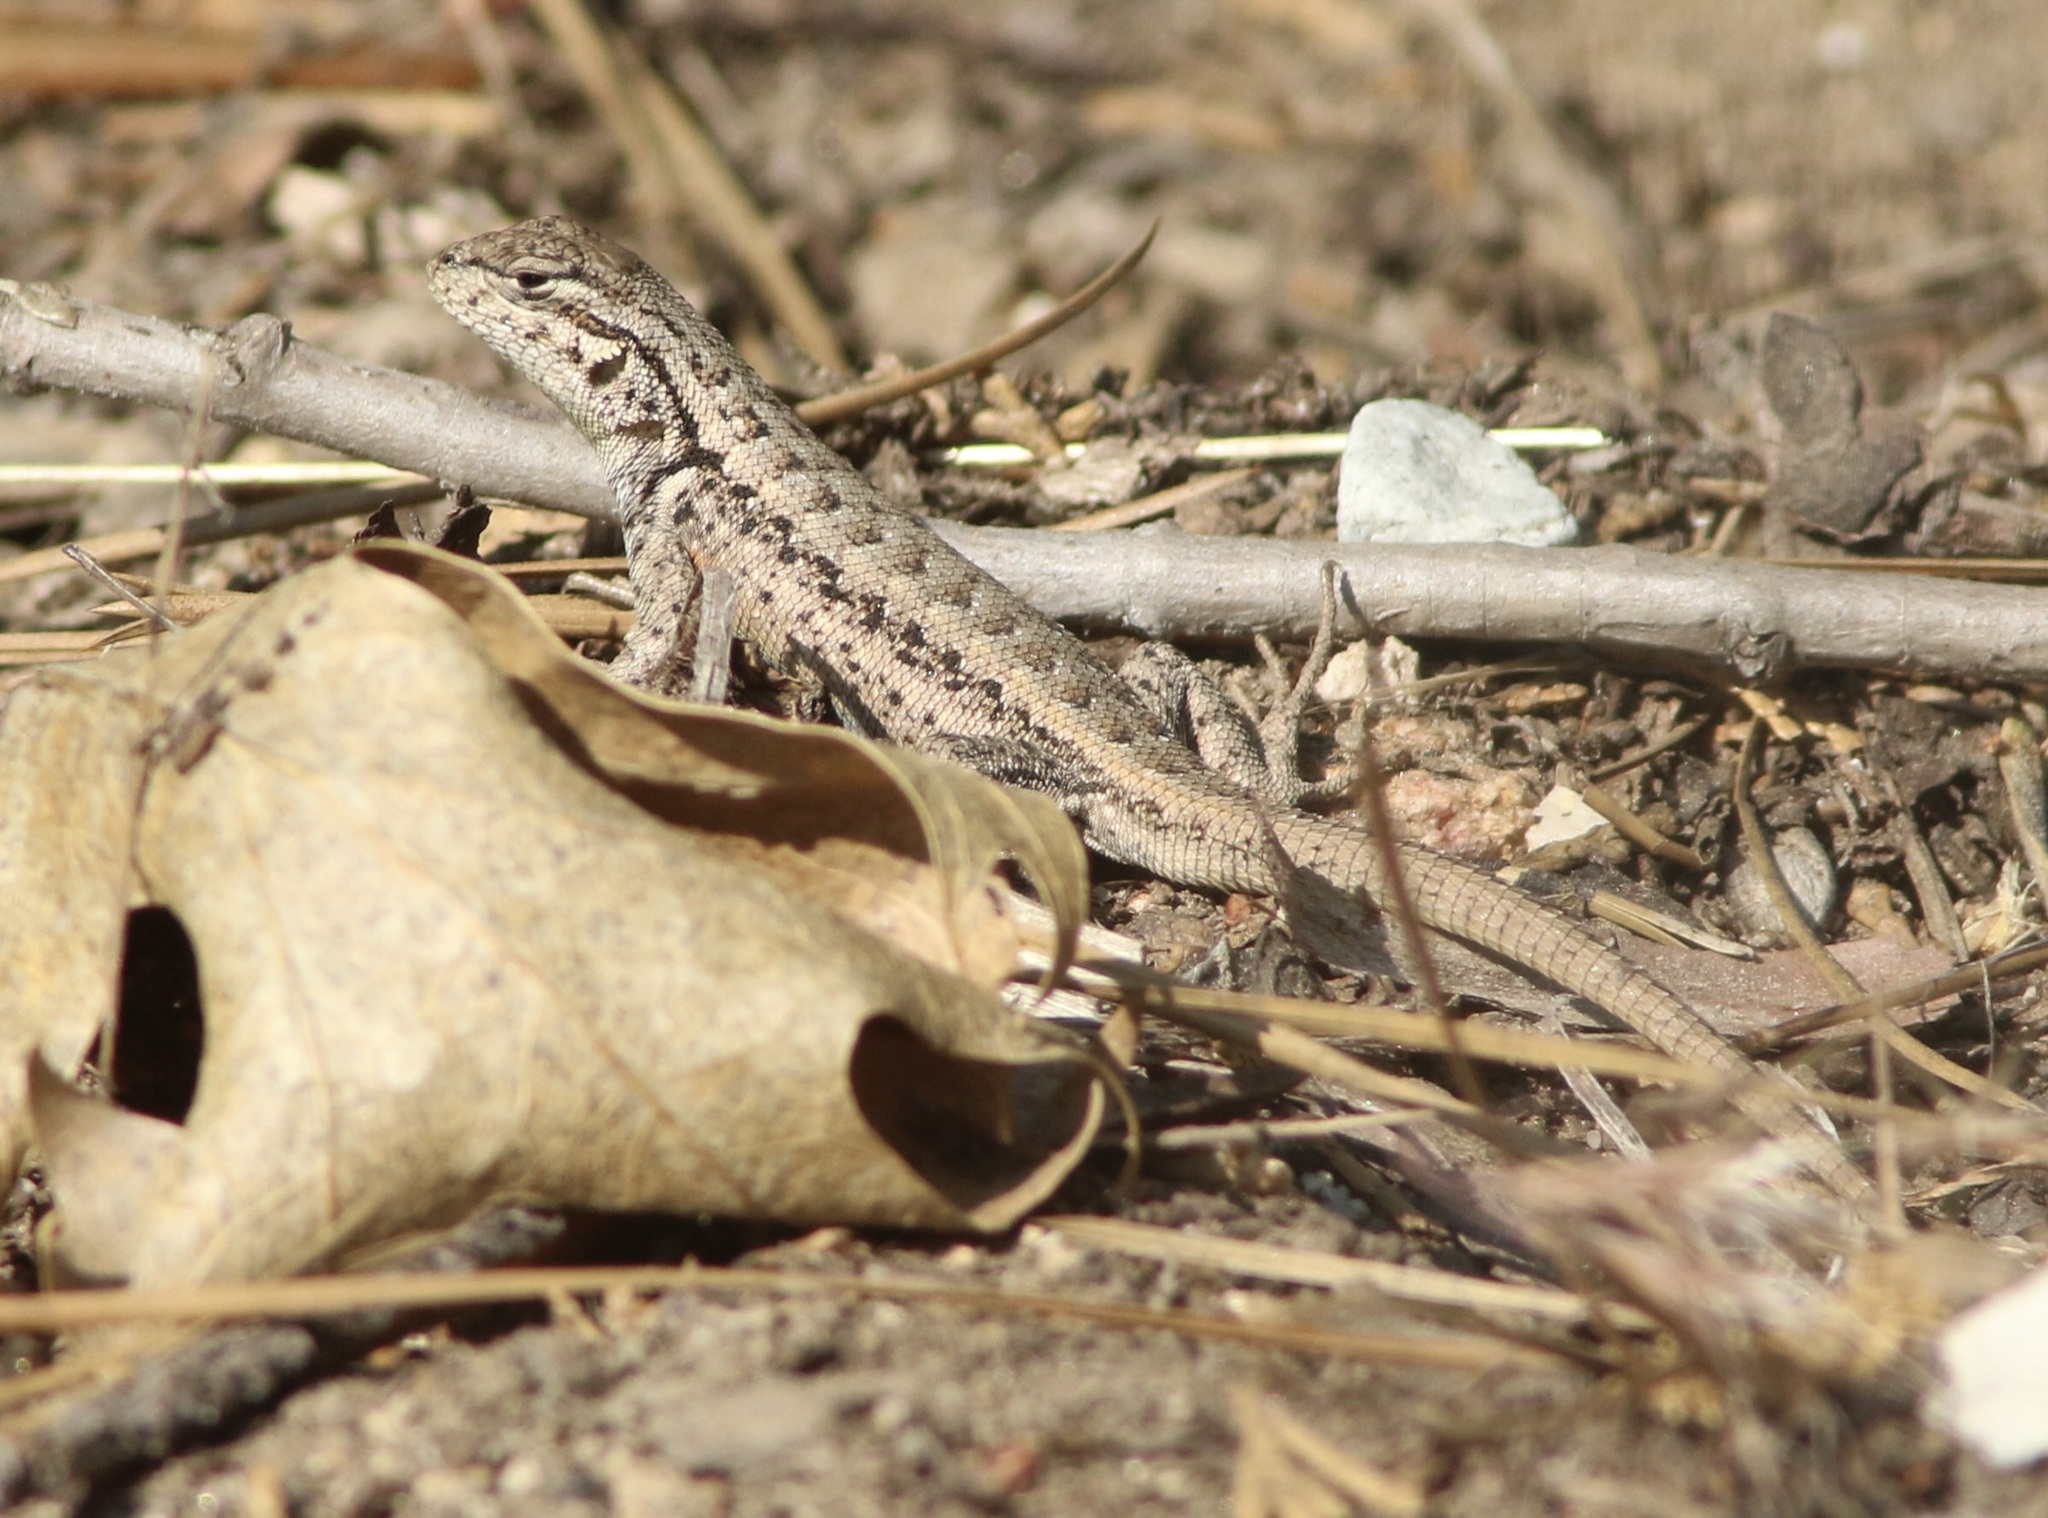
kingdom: Animalia
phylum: Chordata
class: Squamata
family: Phrynosomatidae
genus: Sceloporus
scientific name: Sceloporus graciosus
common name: Sagebrush lizard
